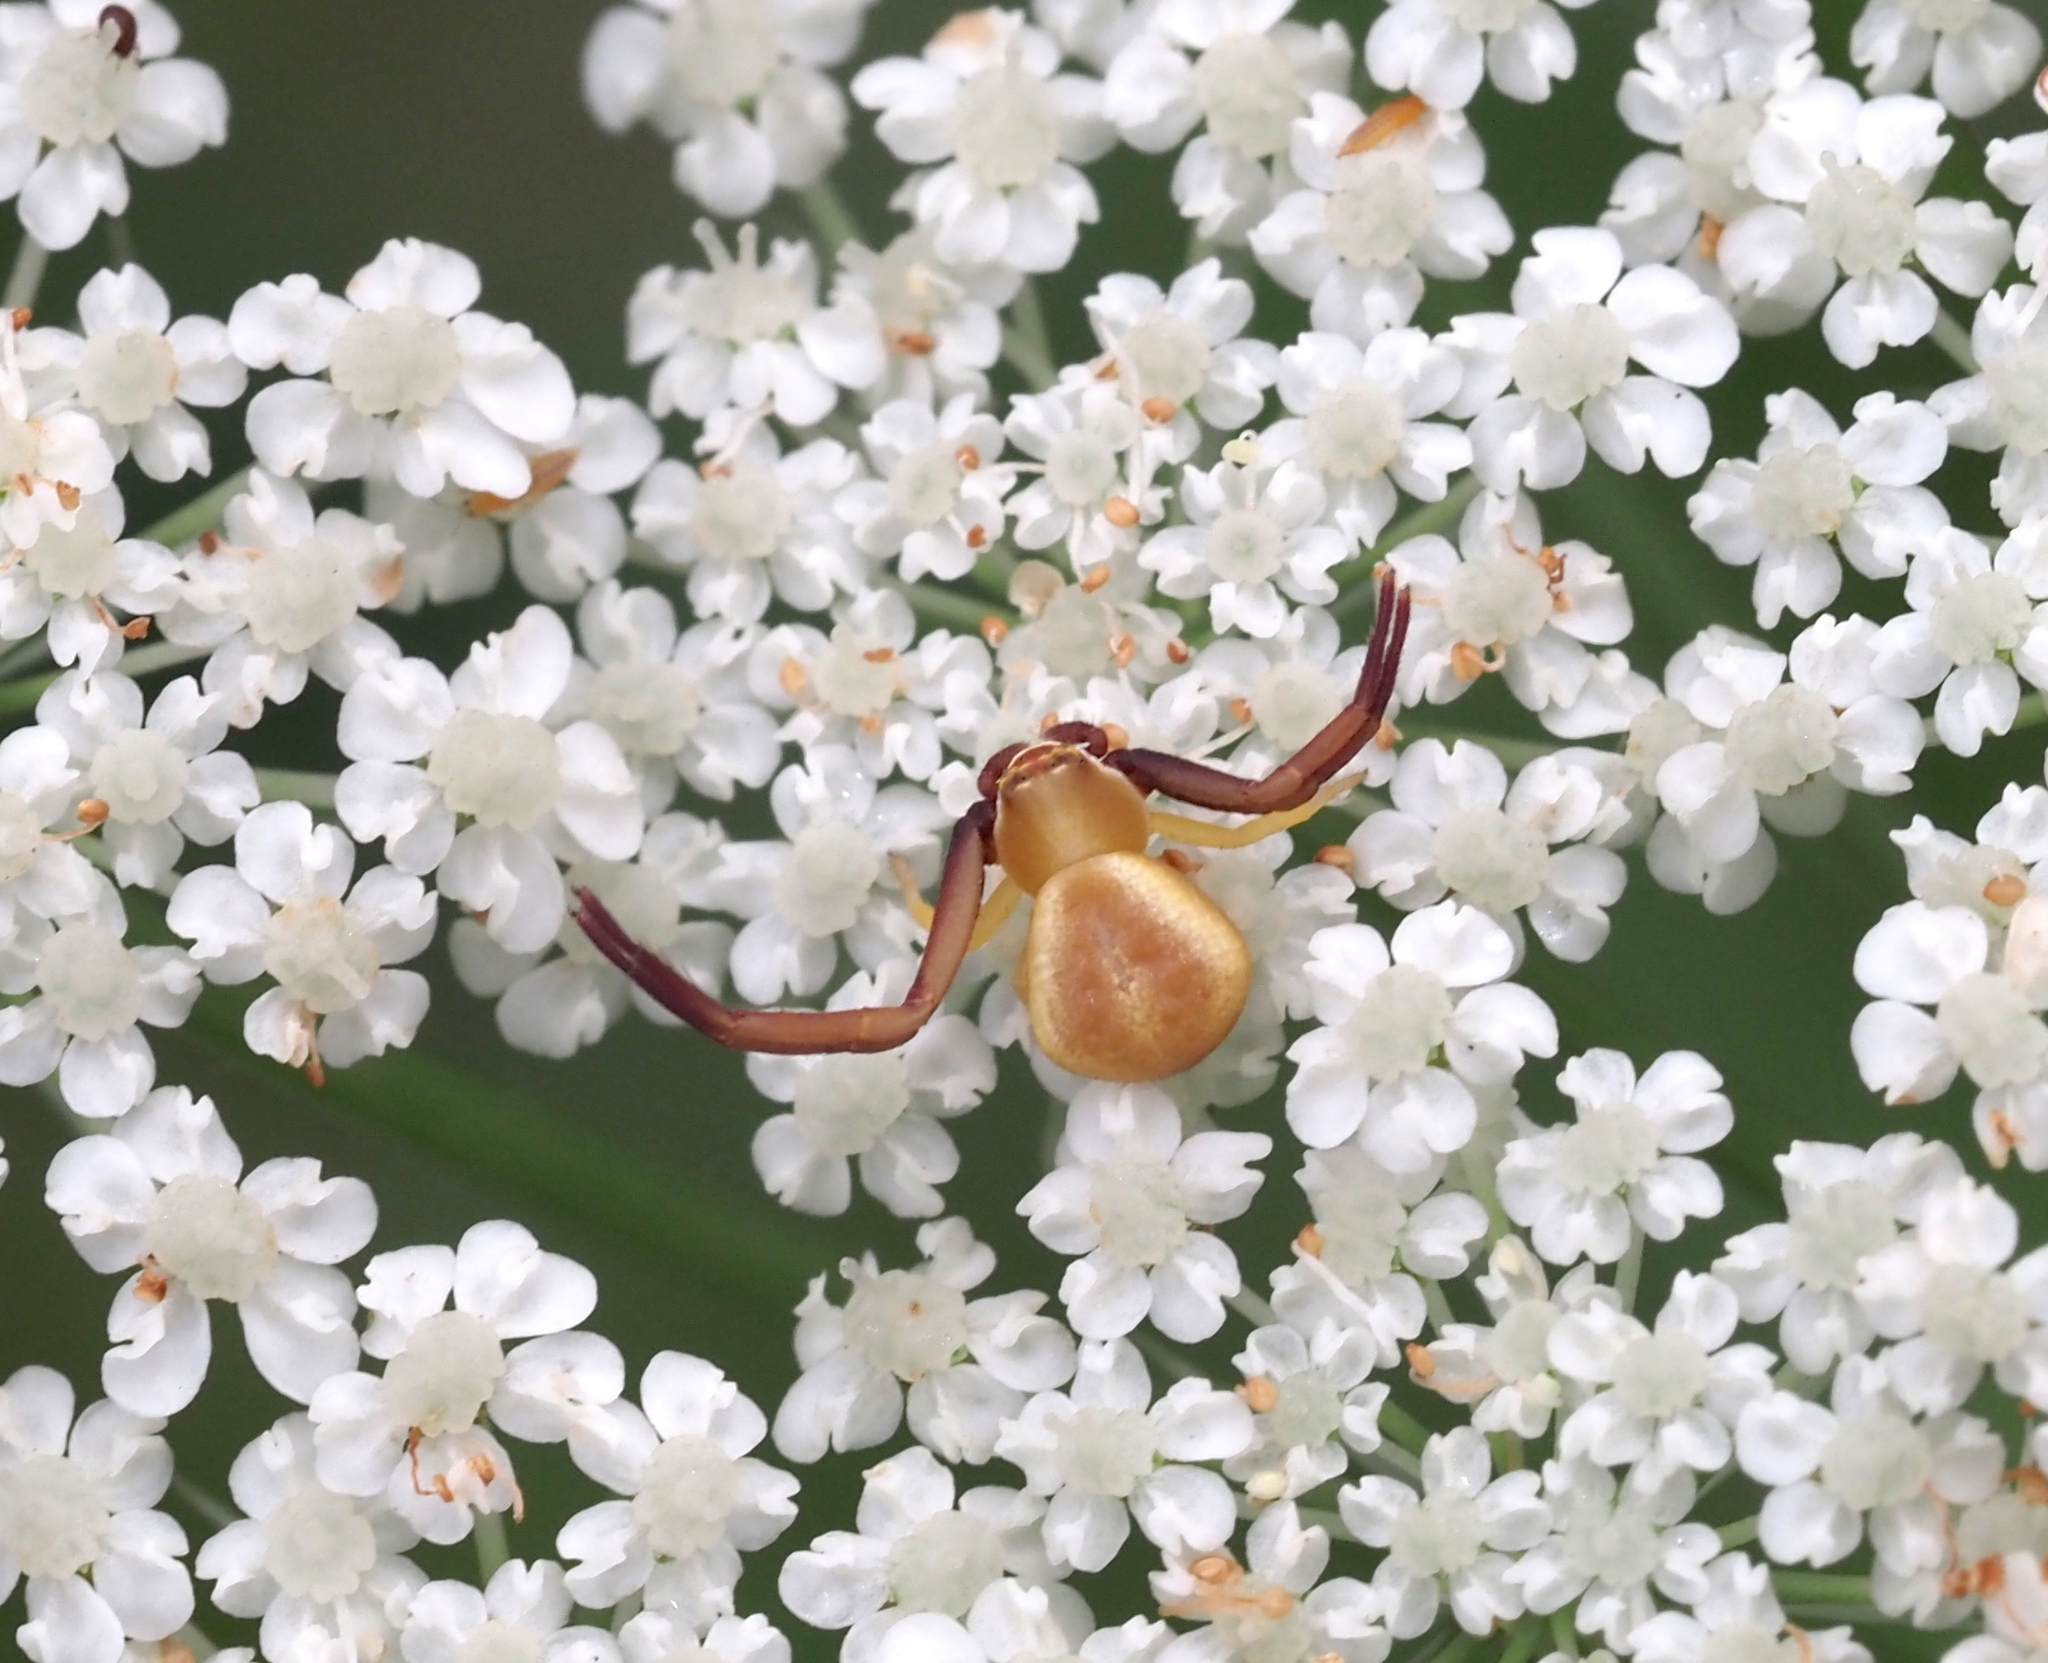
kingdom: Animalia
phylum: Arthropoda
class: Arachnida
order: Araneae
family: Thomisidae
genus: Misumenoides
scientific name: Misumenoides formosipes
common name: White-banded crab spider
